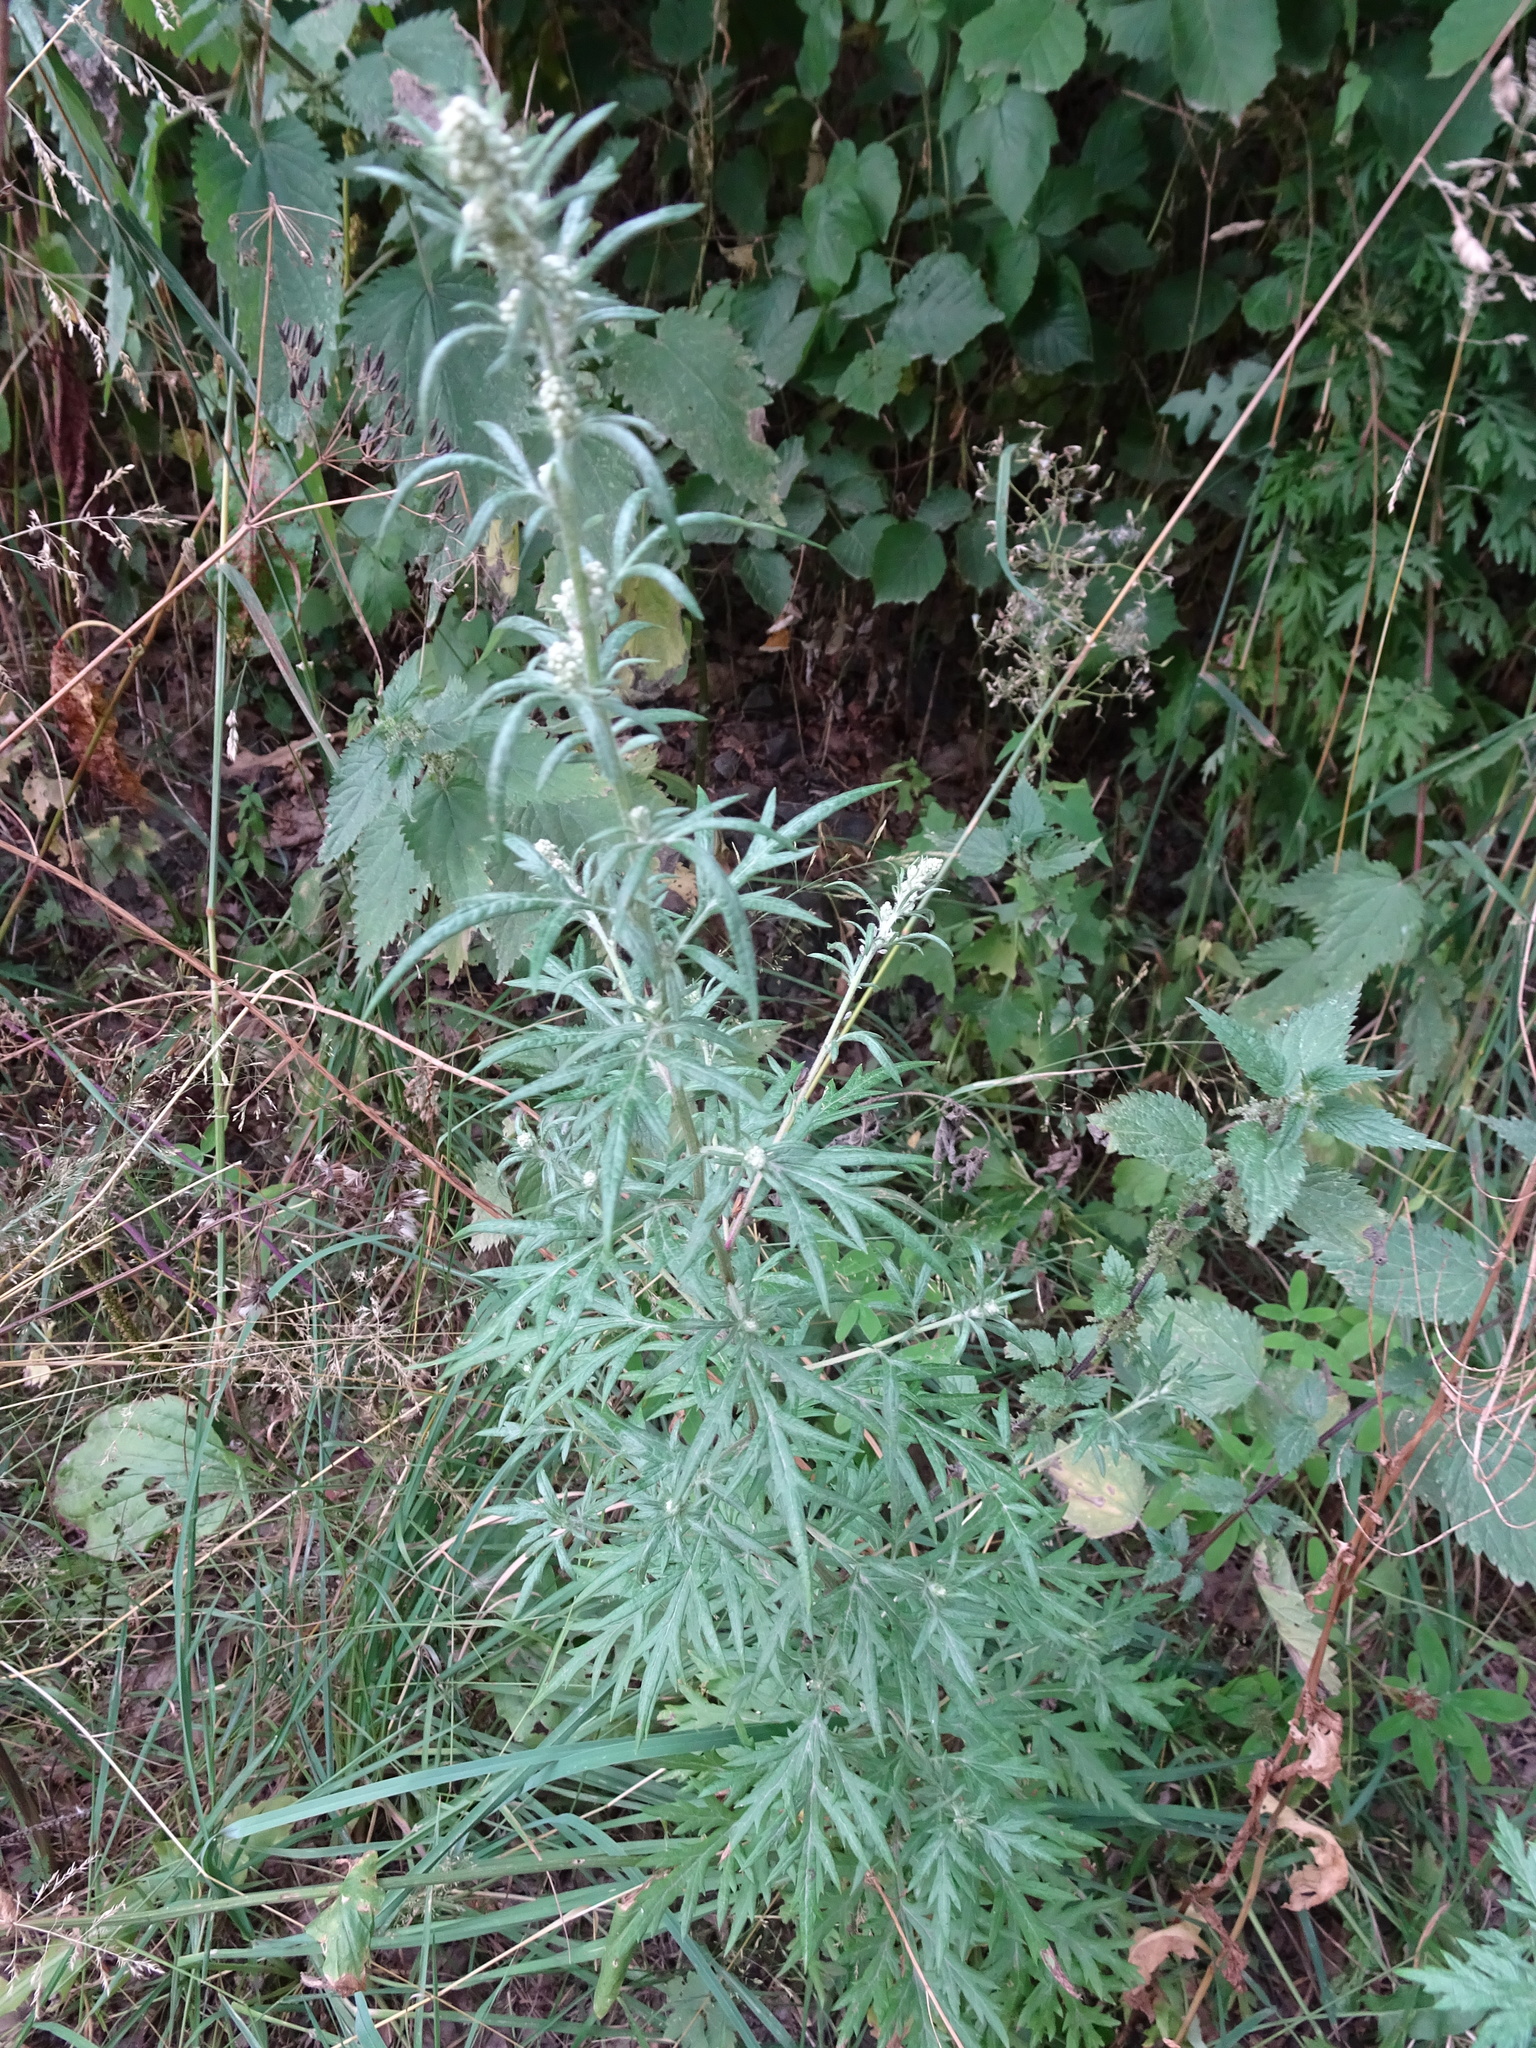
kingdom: Plantae
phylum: Tracheophyta
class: Magnoliopsida
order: Asterales
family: Asteraceae
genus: Artemisia
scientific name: Artemisia vulgaris
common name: Mugwort
